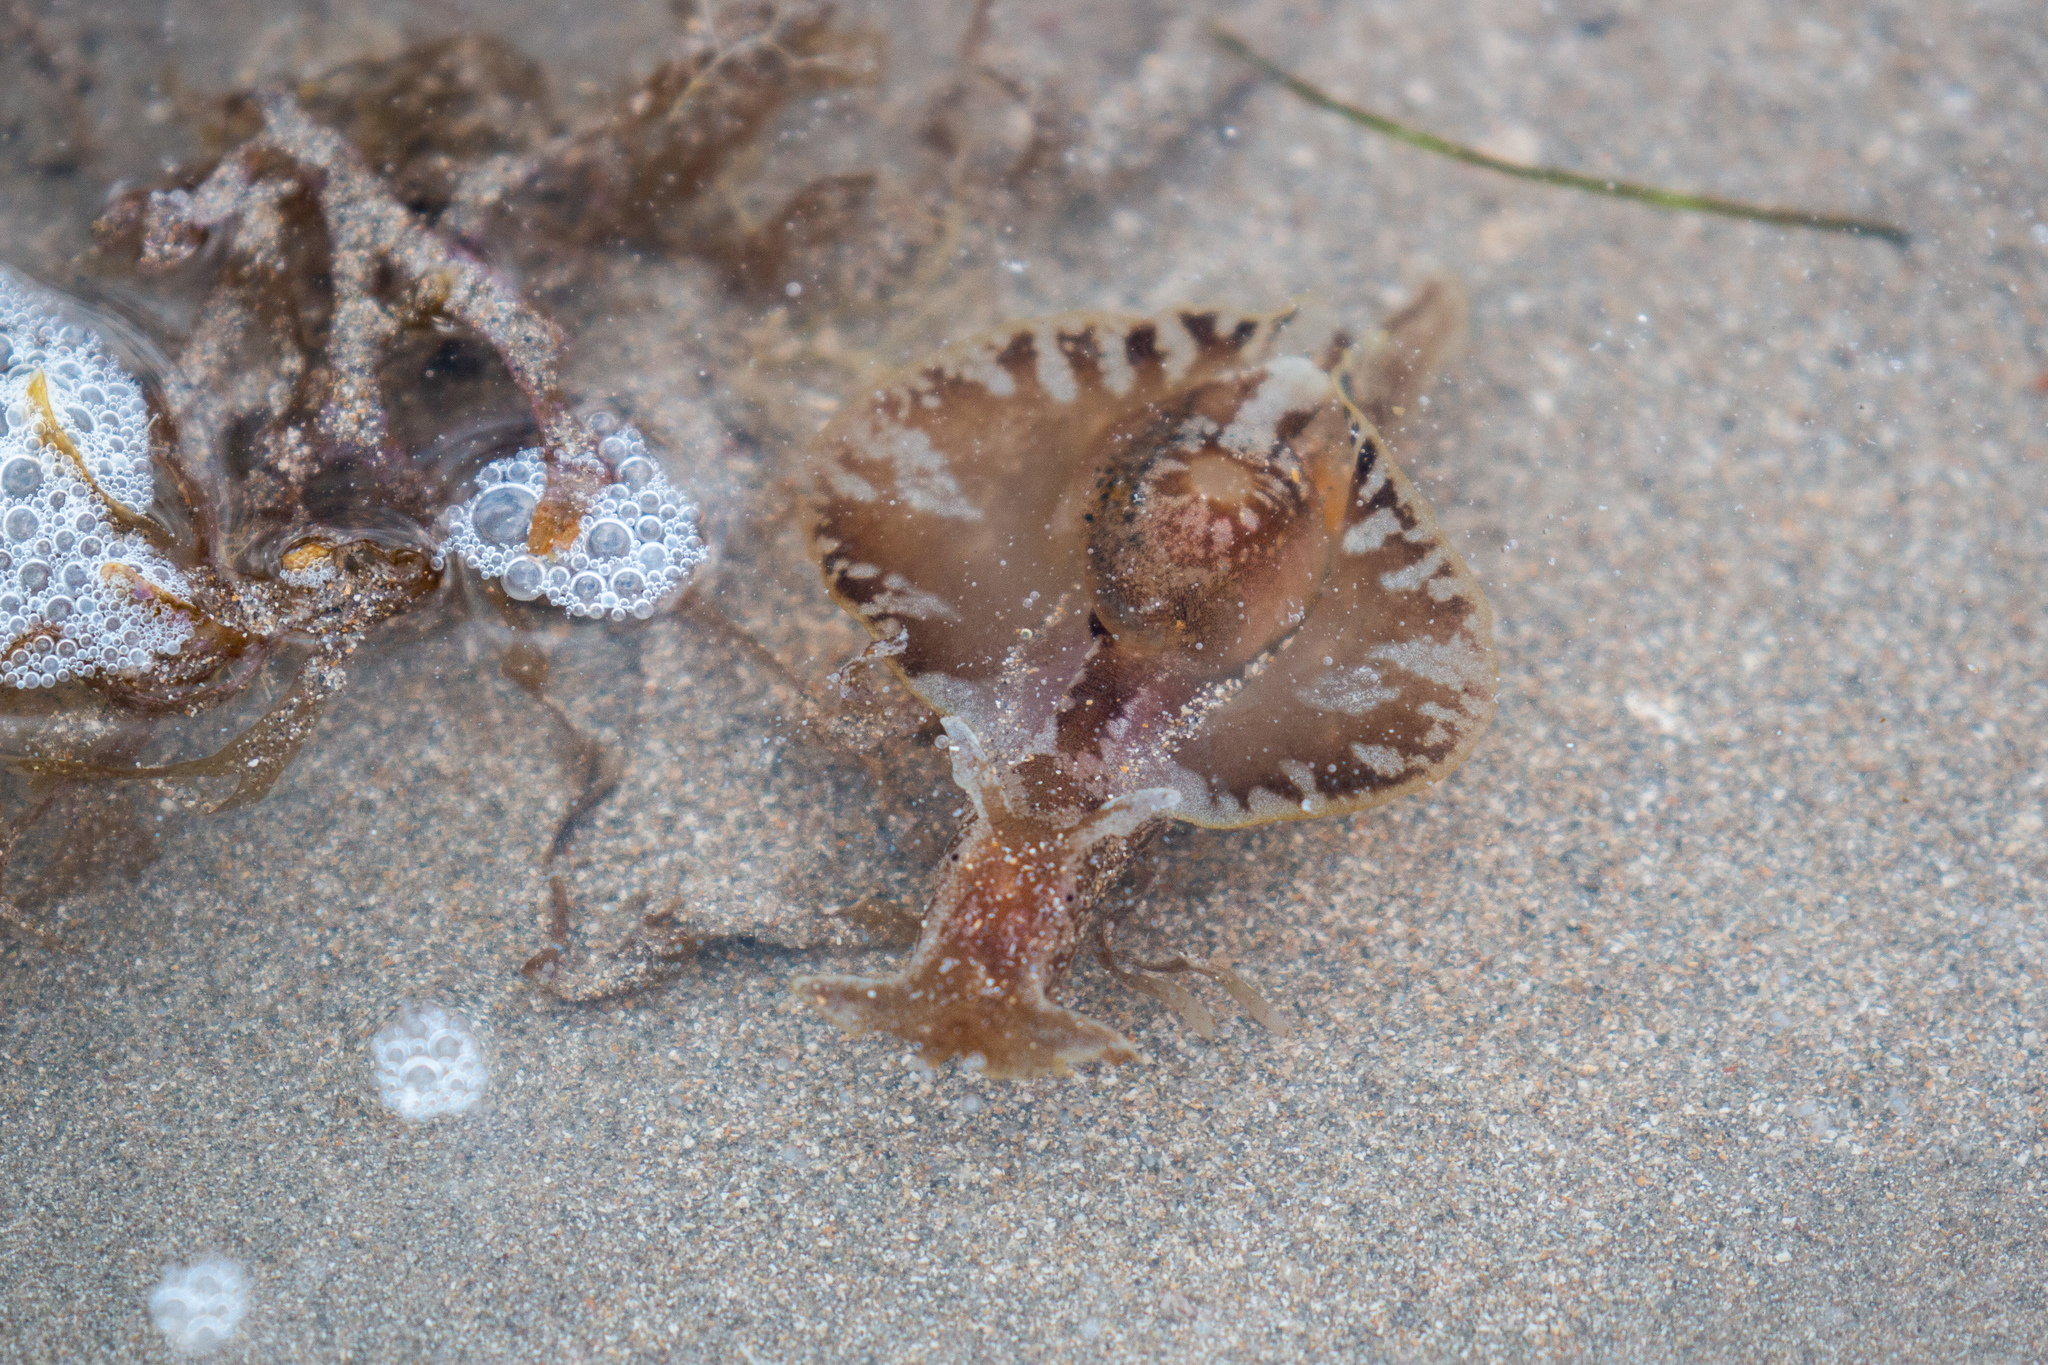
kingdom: Animalia
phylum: Mollusca
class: Gastropoda
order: Aplysiida
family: Aplysiidae
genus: Aplysia
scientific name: Aplysia brasiliana
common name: Mottled seahare
